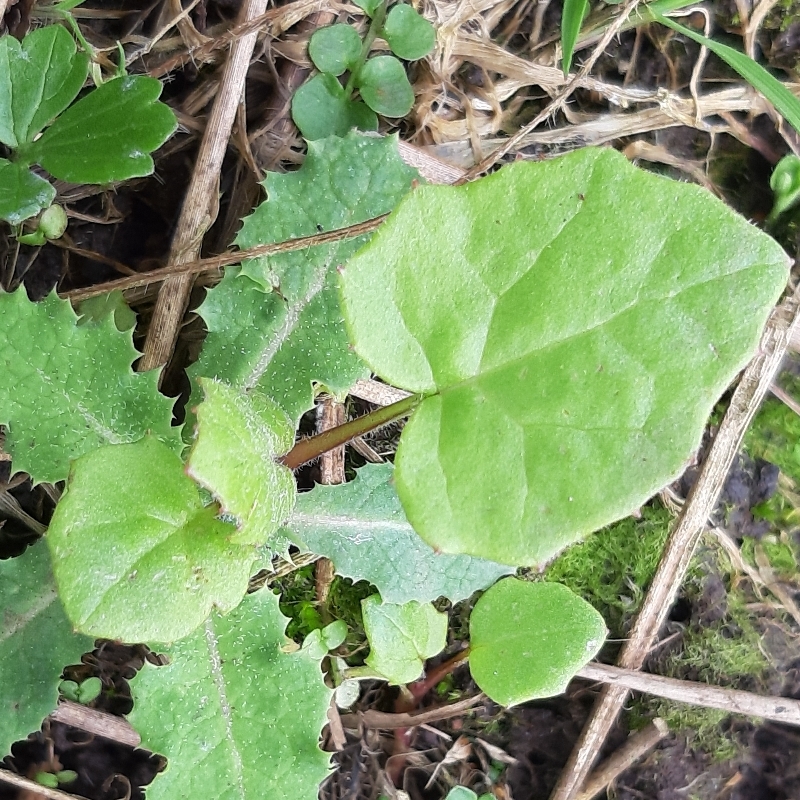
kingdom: Plantae
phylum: Tracheophyta
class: Magnoliopsida
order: Asterales
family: Asteraceae
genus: Tussilago
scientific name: Tussilago farfara
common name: Coltsfoot
